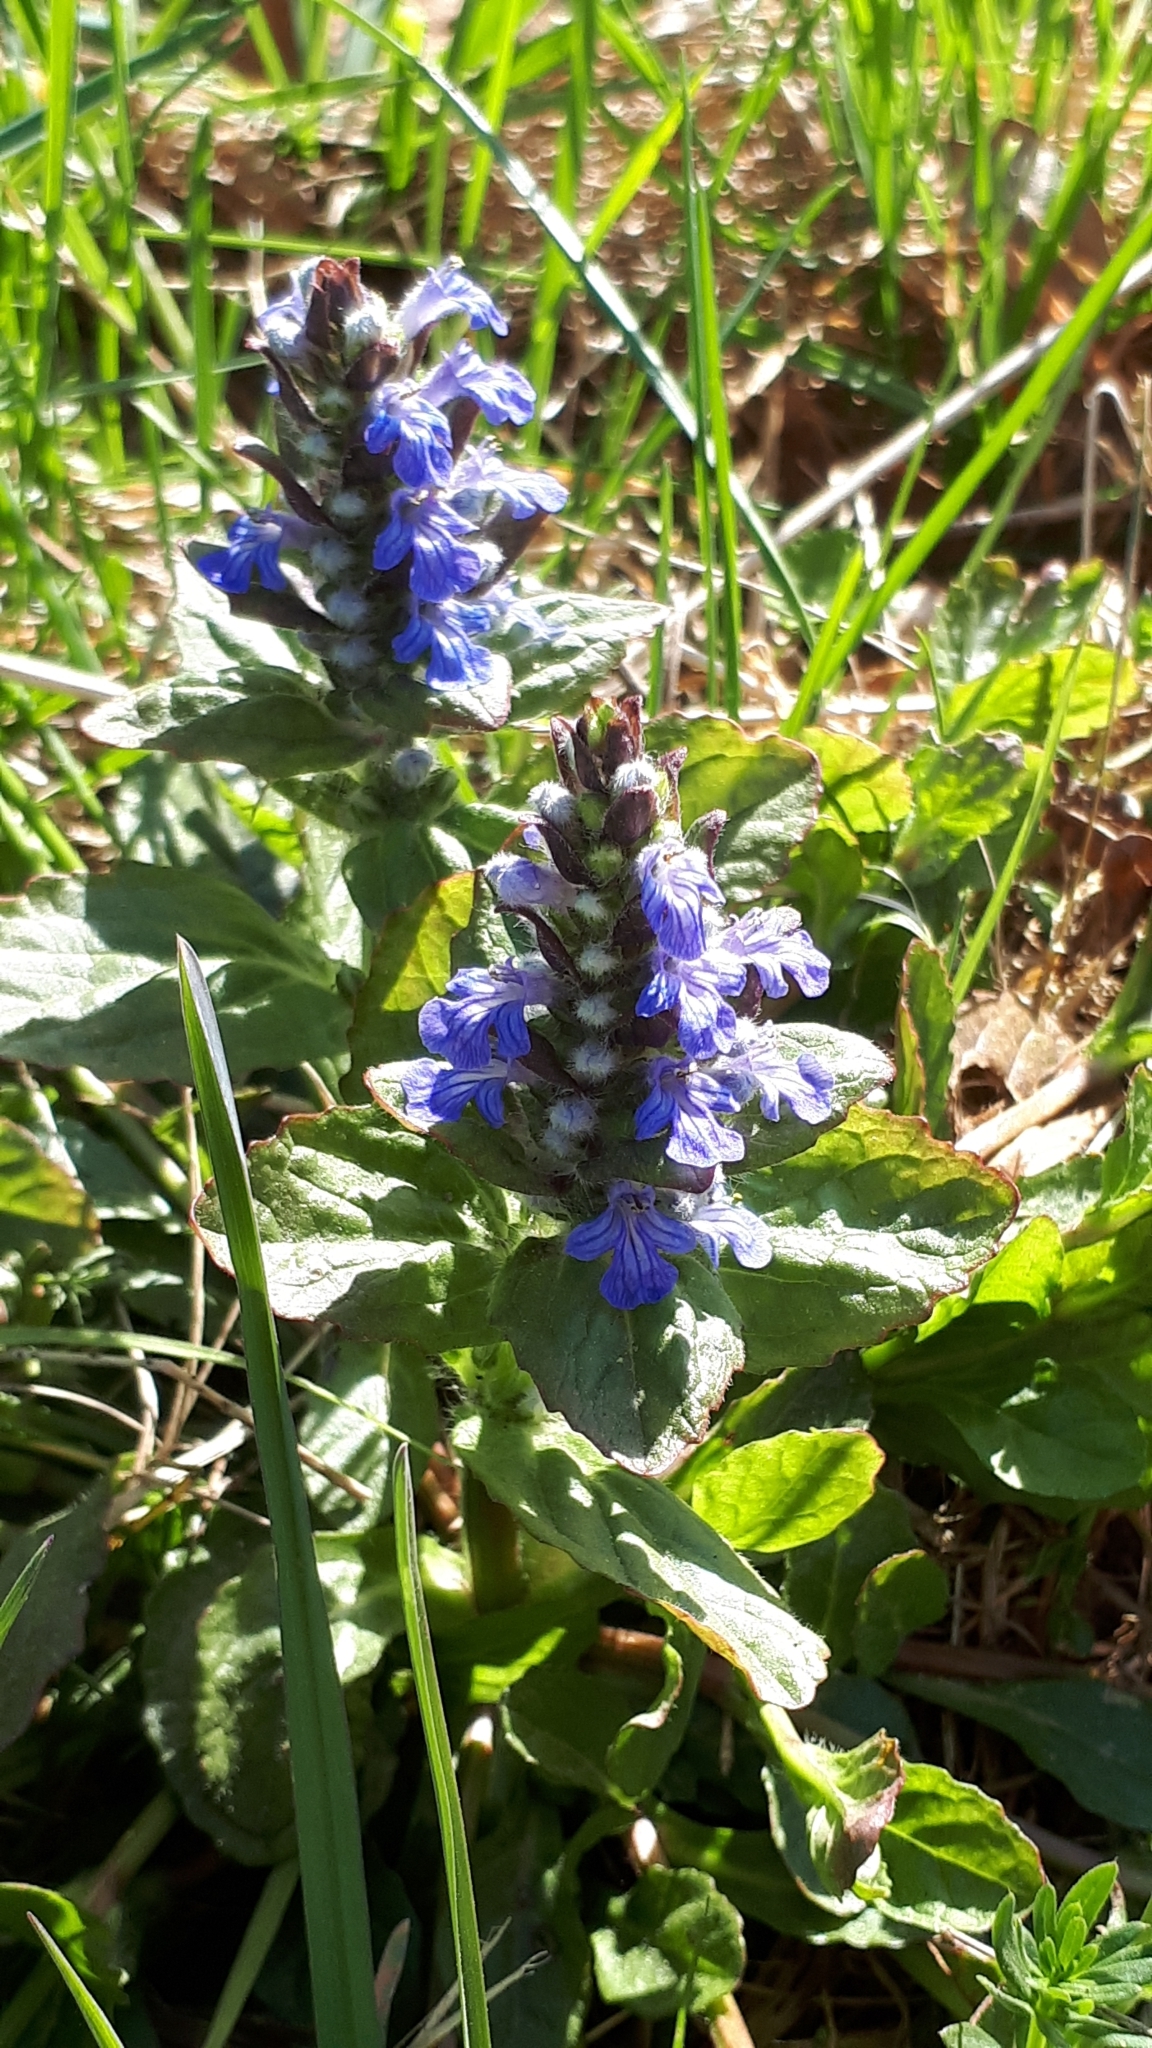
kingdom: Plantae
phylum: Tracheophyta
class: Magnoliopsida
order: Lamiales
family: Lamiaceae
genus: Ajuga
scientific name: Ajuga reptans
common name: Bugle
